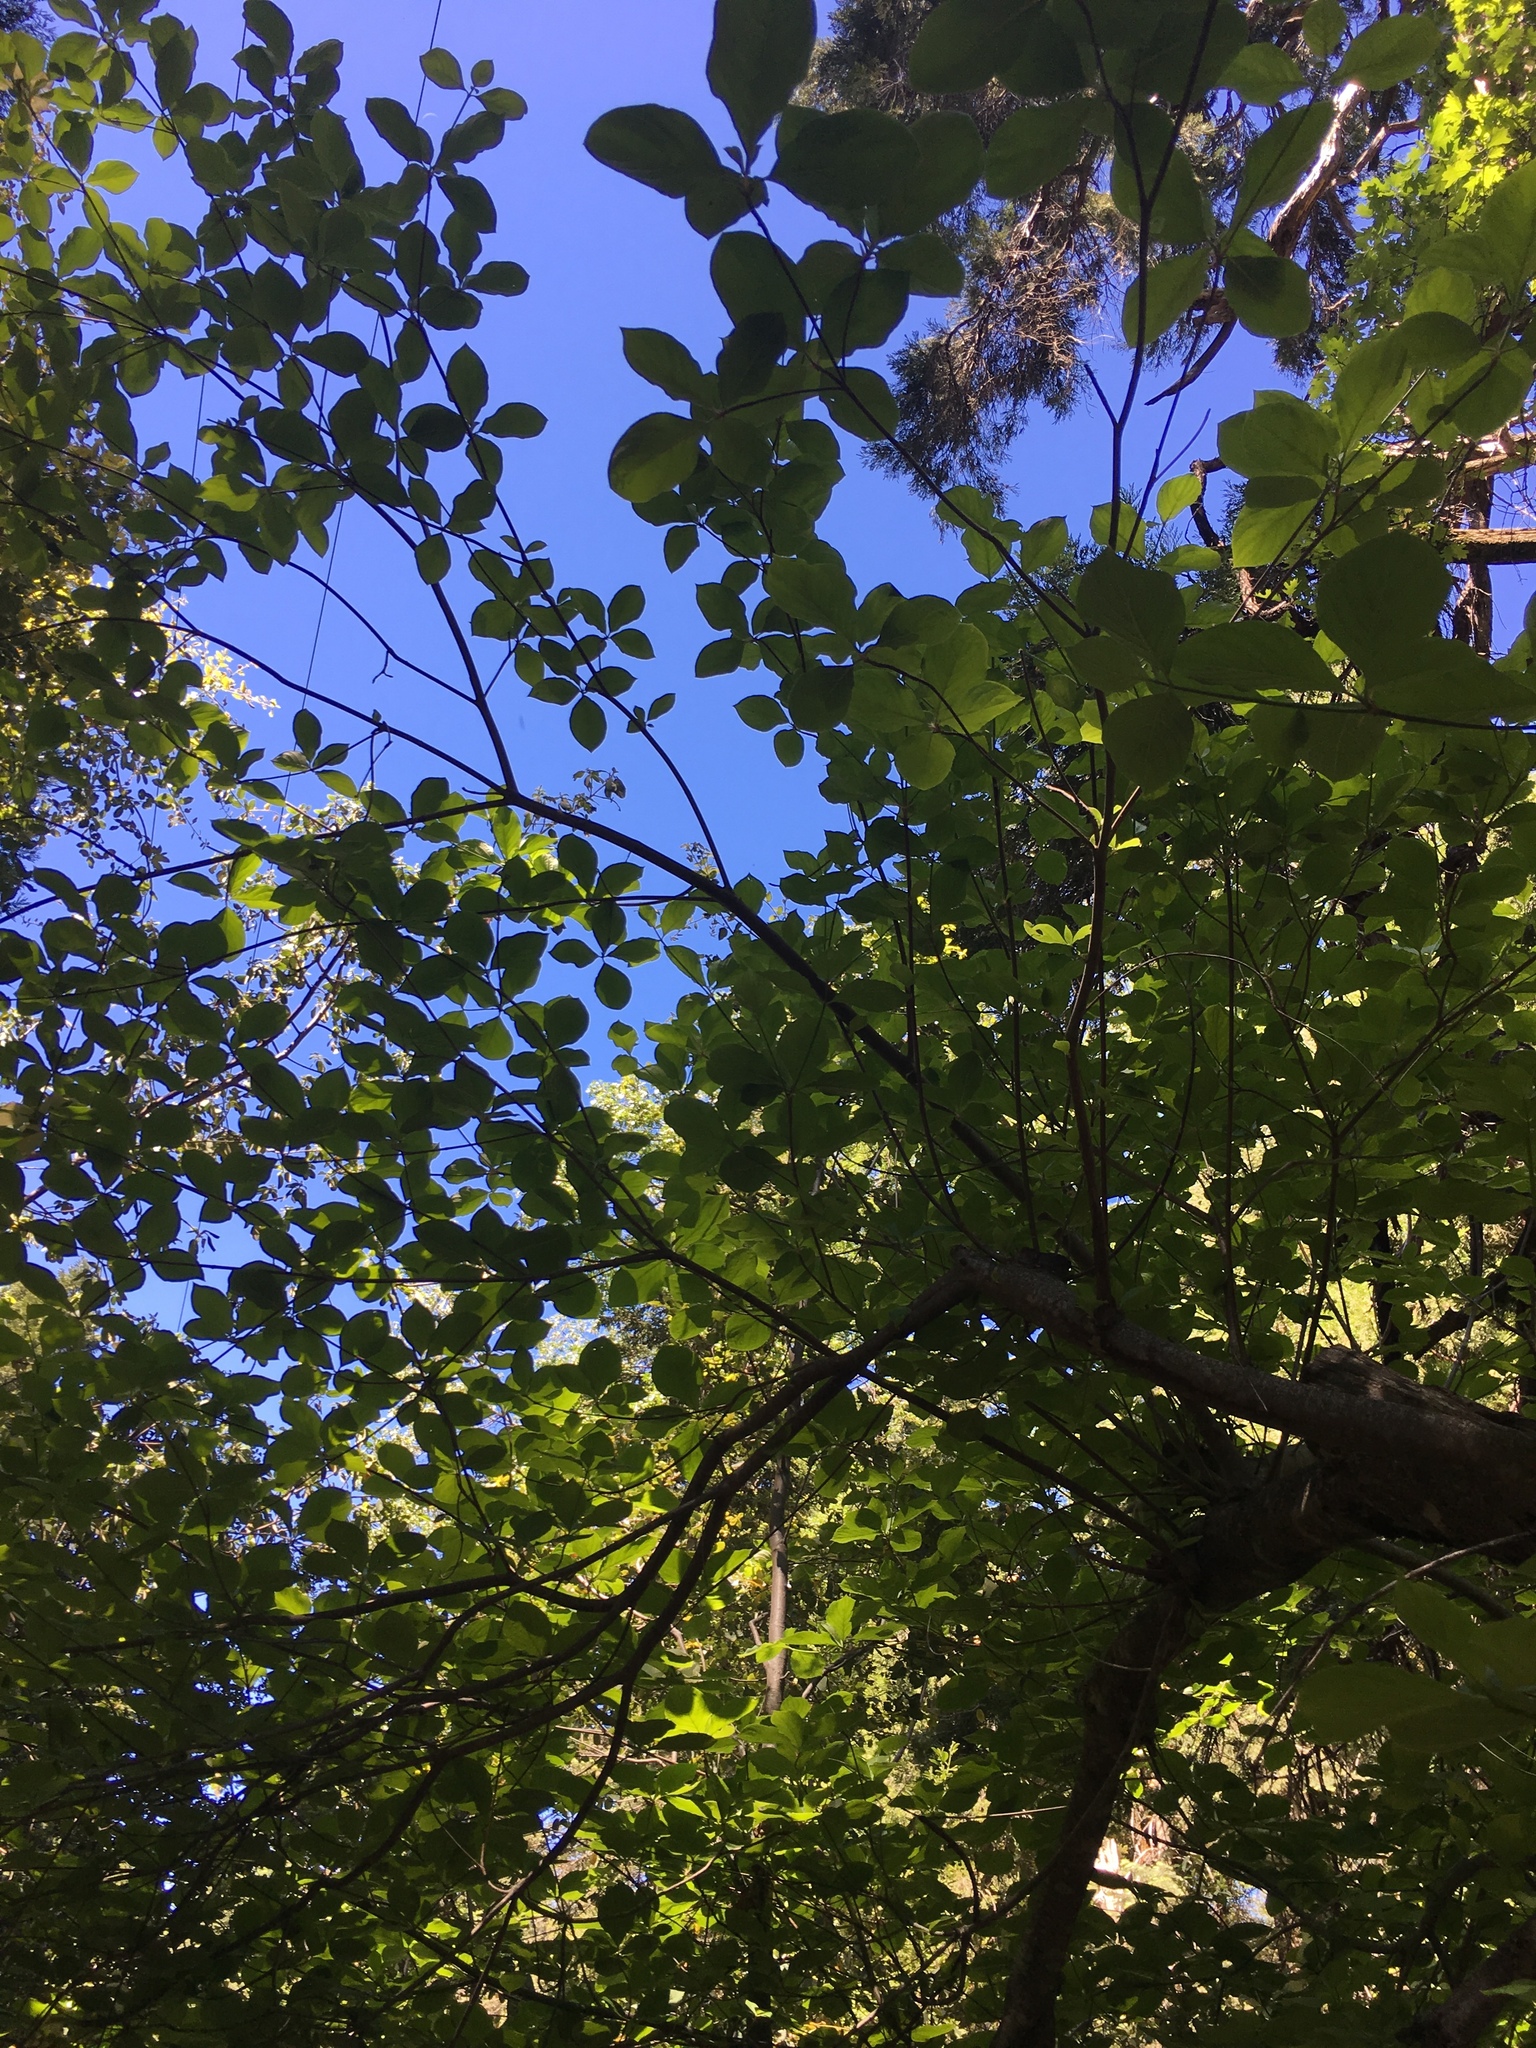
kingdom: Plantae
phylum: Tracheophyta
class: Magnoliopsida
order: Cornales
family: Cornaceae
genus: Cornus
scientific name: Cornus nuttallii
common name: Pacific dogwood
